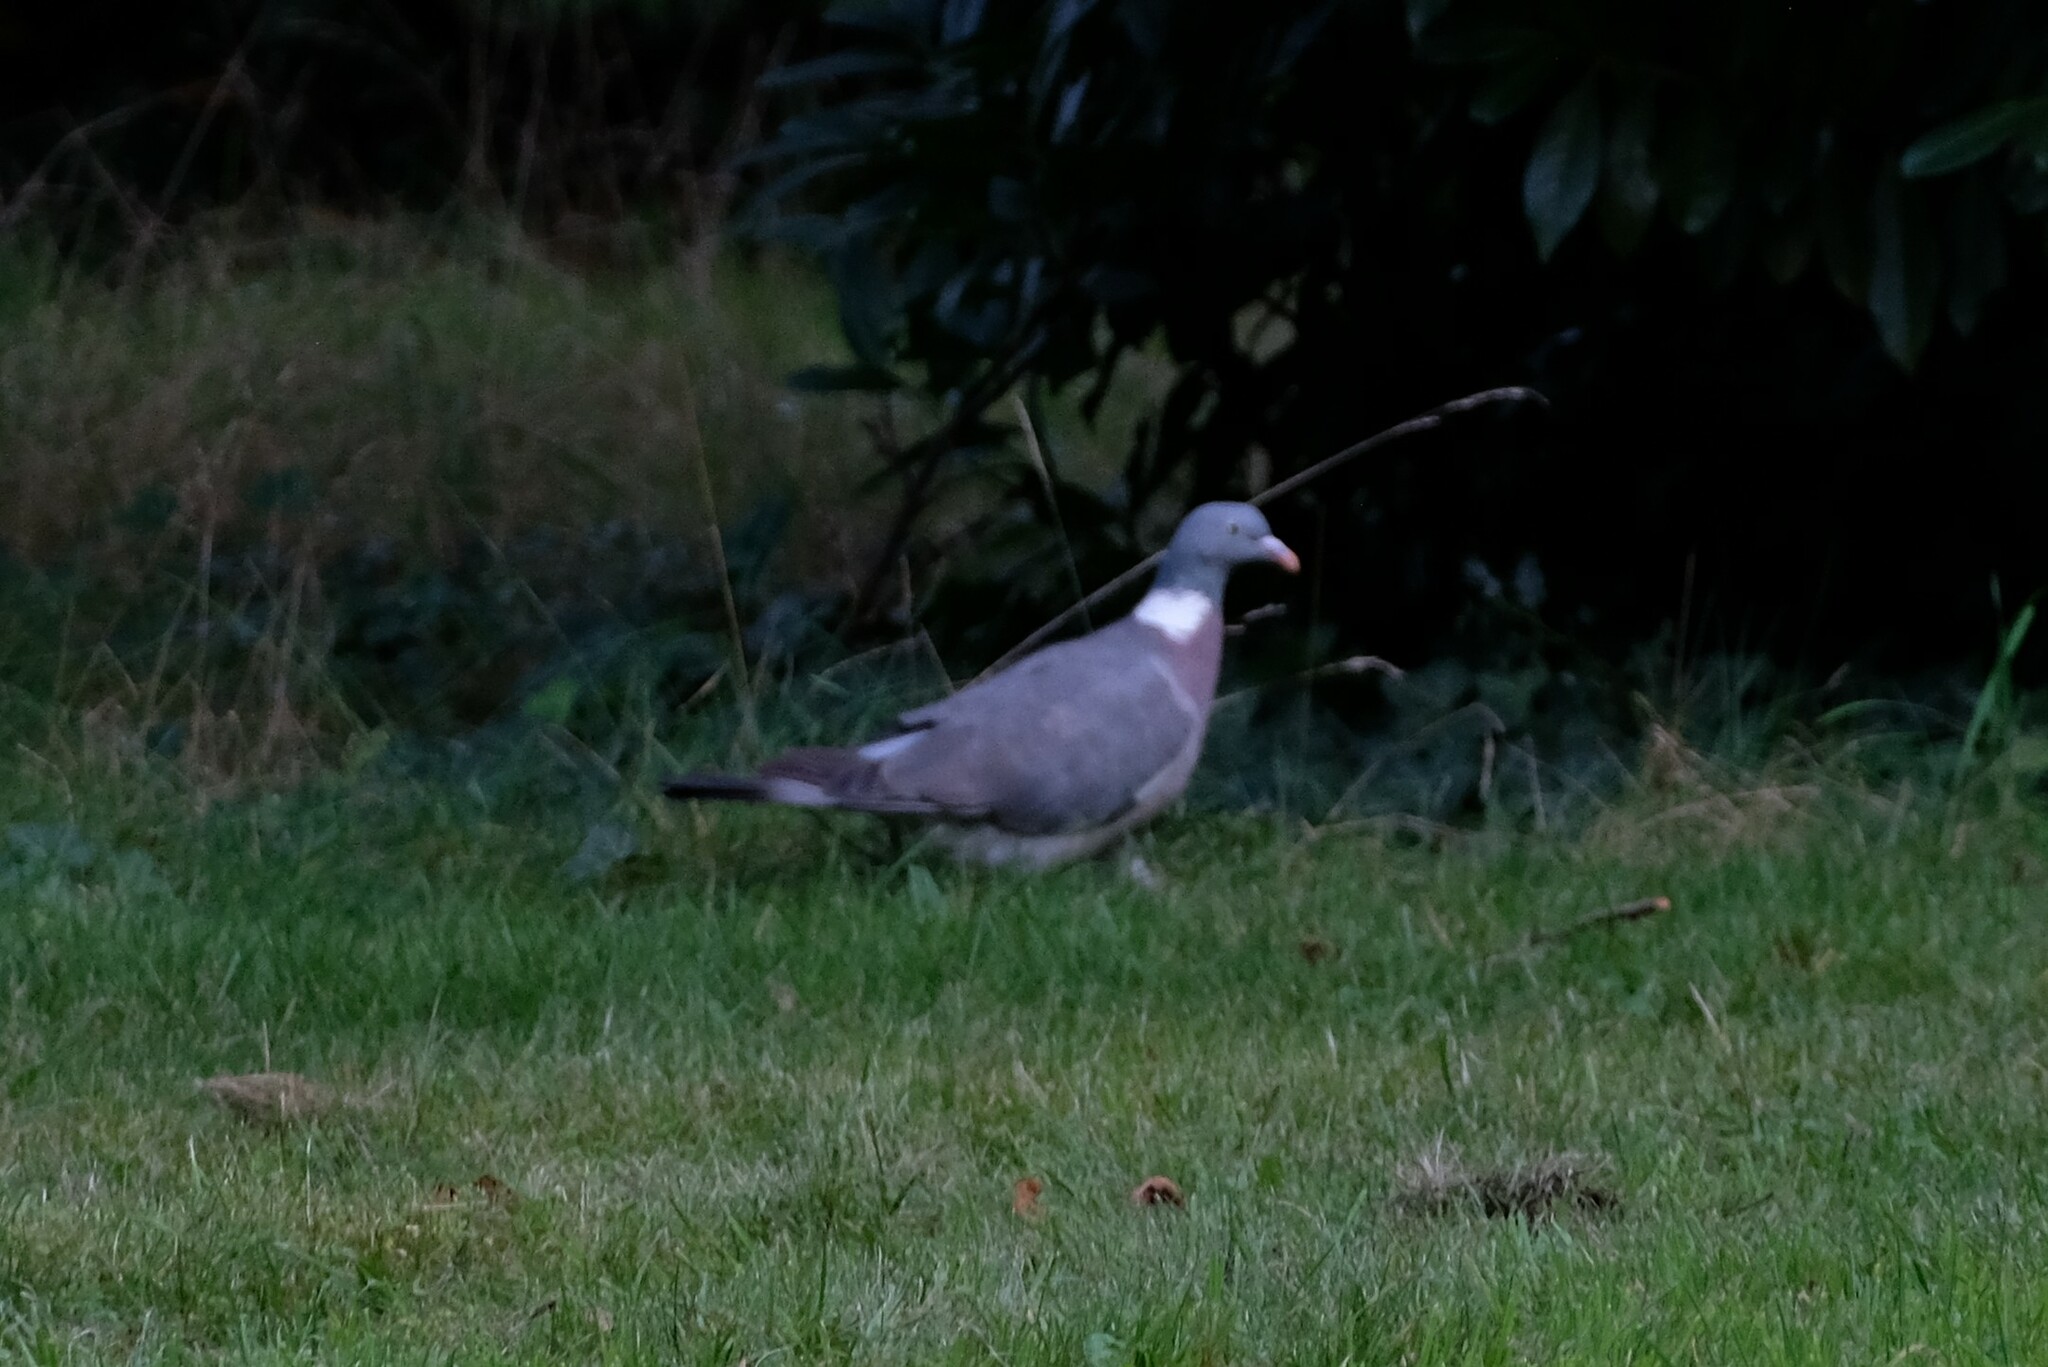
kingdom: Animalia
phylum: Chordata
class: Aves
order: Columbiformes
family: Columbidae
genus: Columba
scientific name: Columba palumbus
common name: Common wood pigeon
